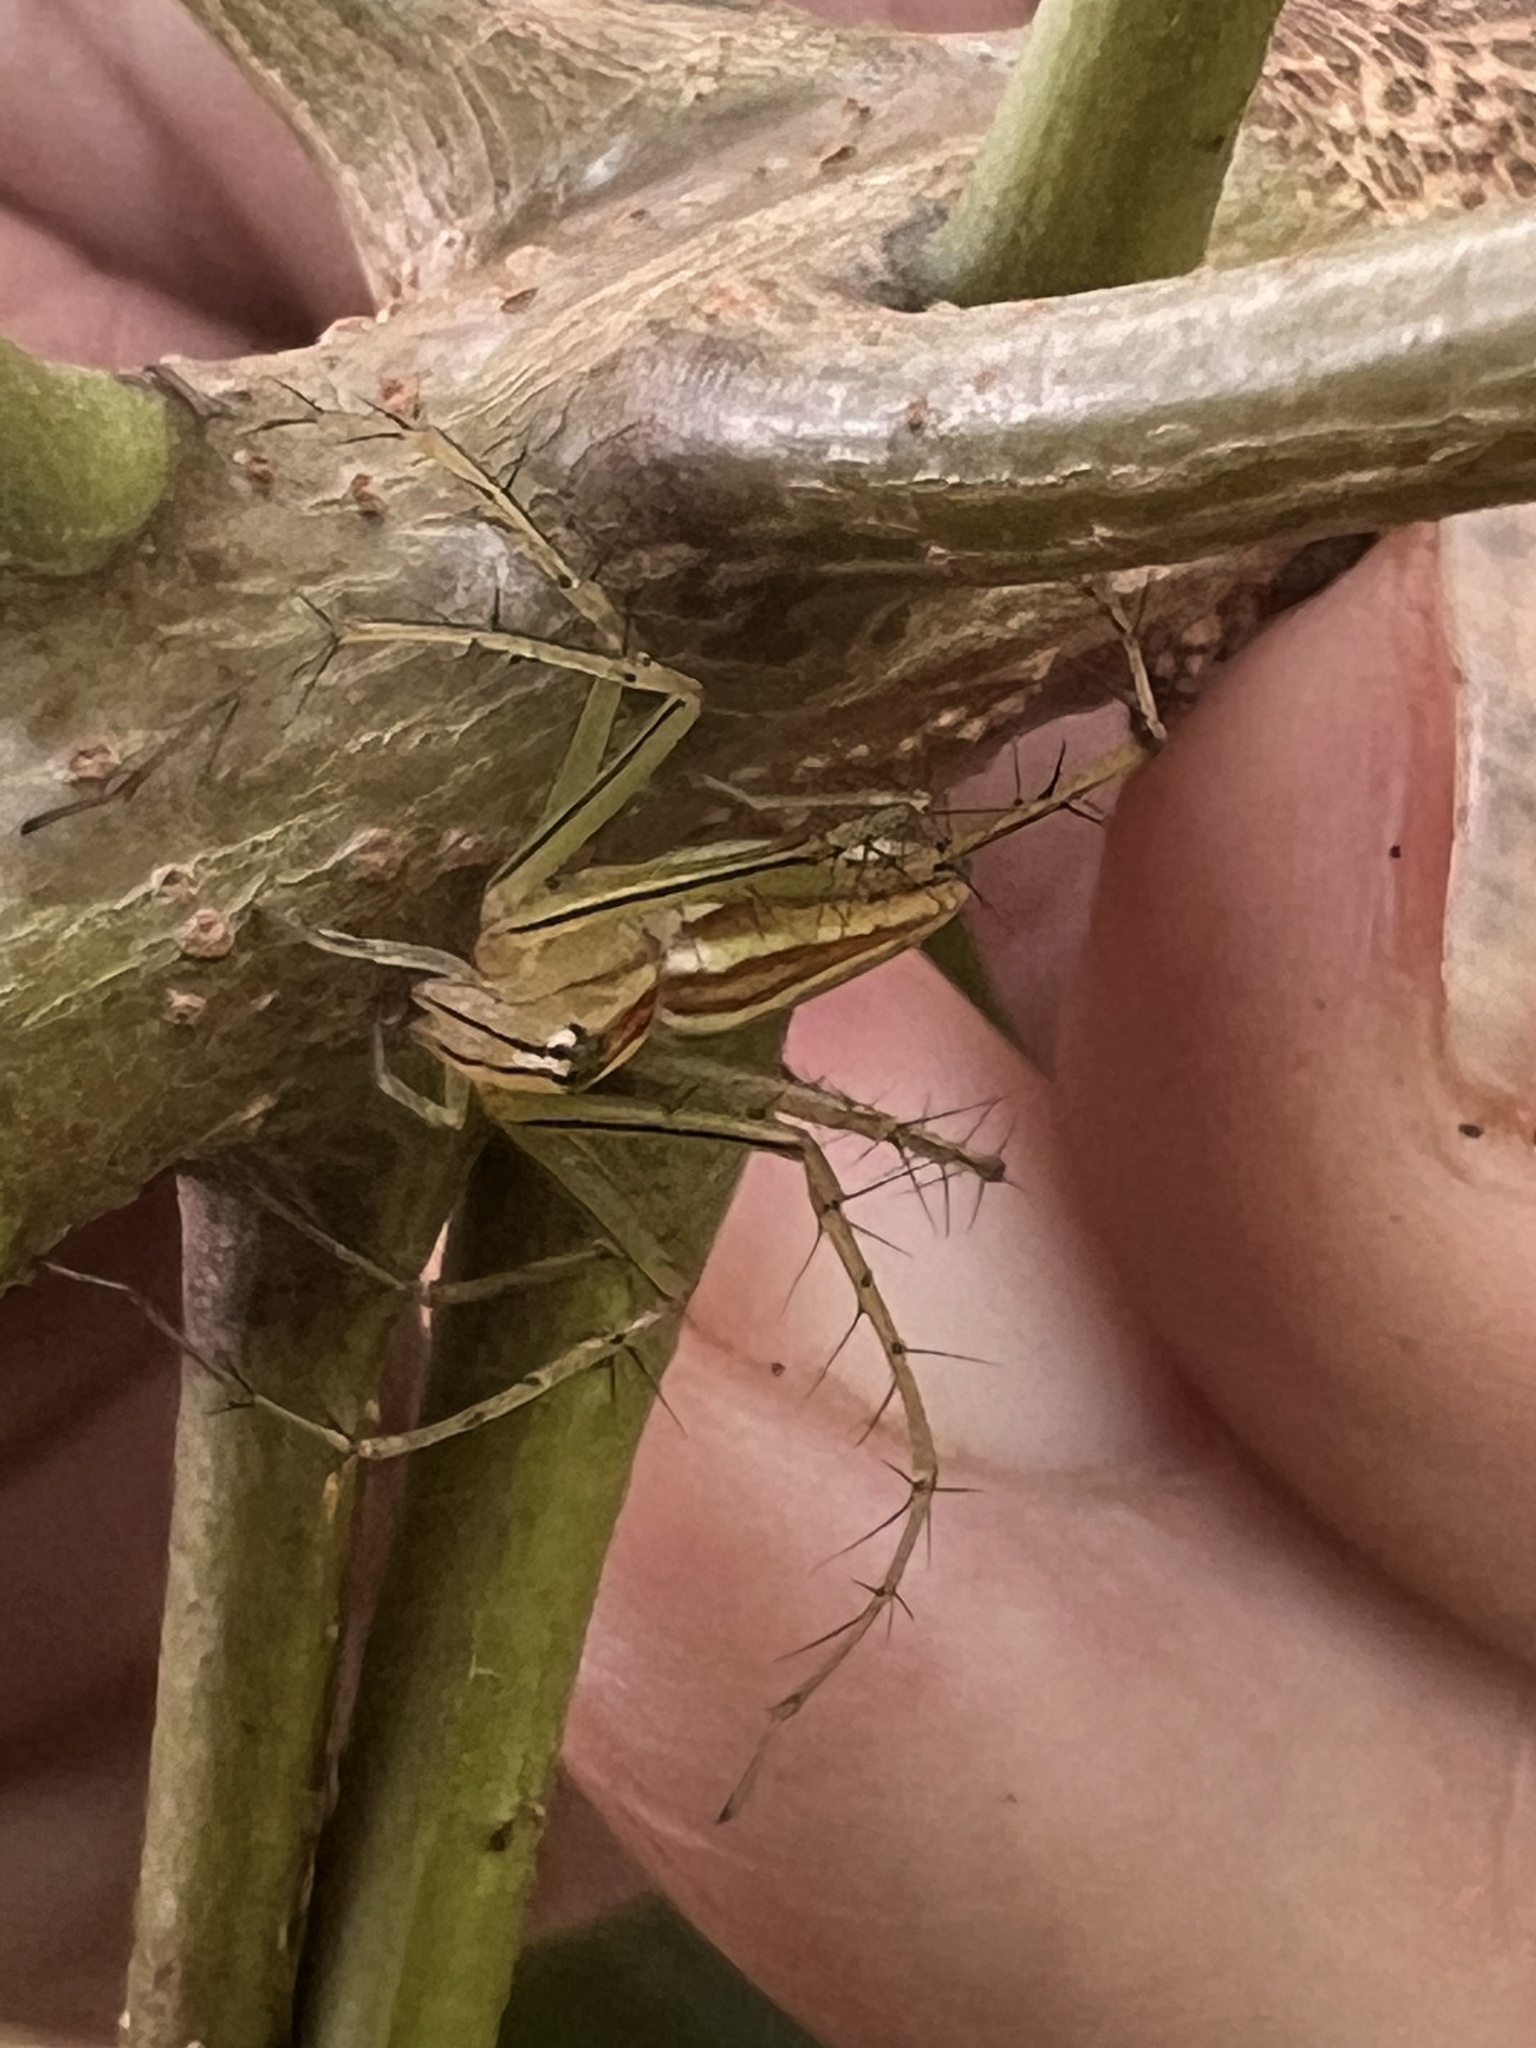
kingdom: Animalia
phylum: Arthropoda
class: Arachnida
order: Araneae
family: Oxyopidae
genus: Oxyopes
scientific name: Oxyopes macilentus
